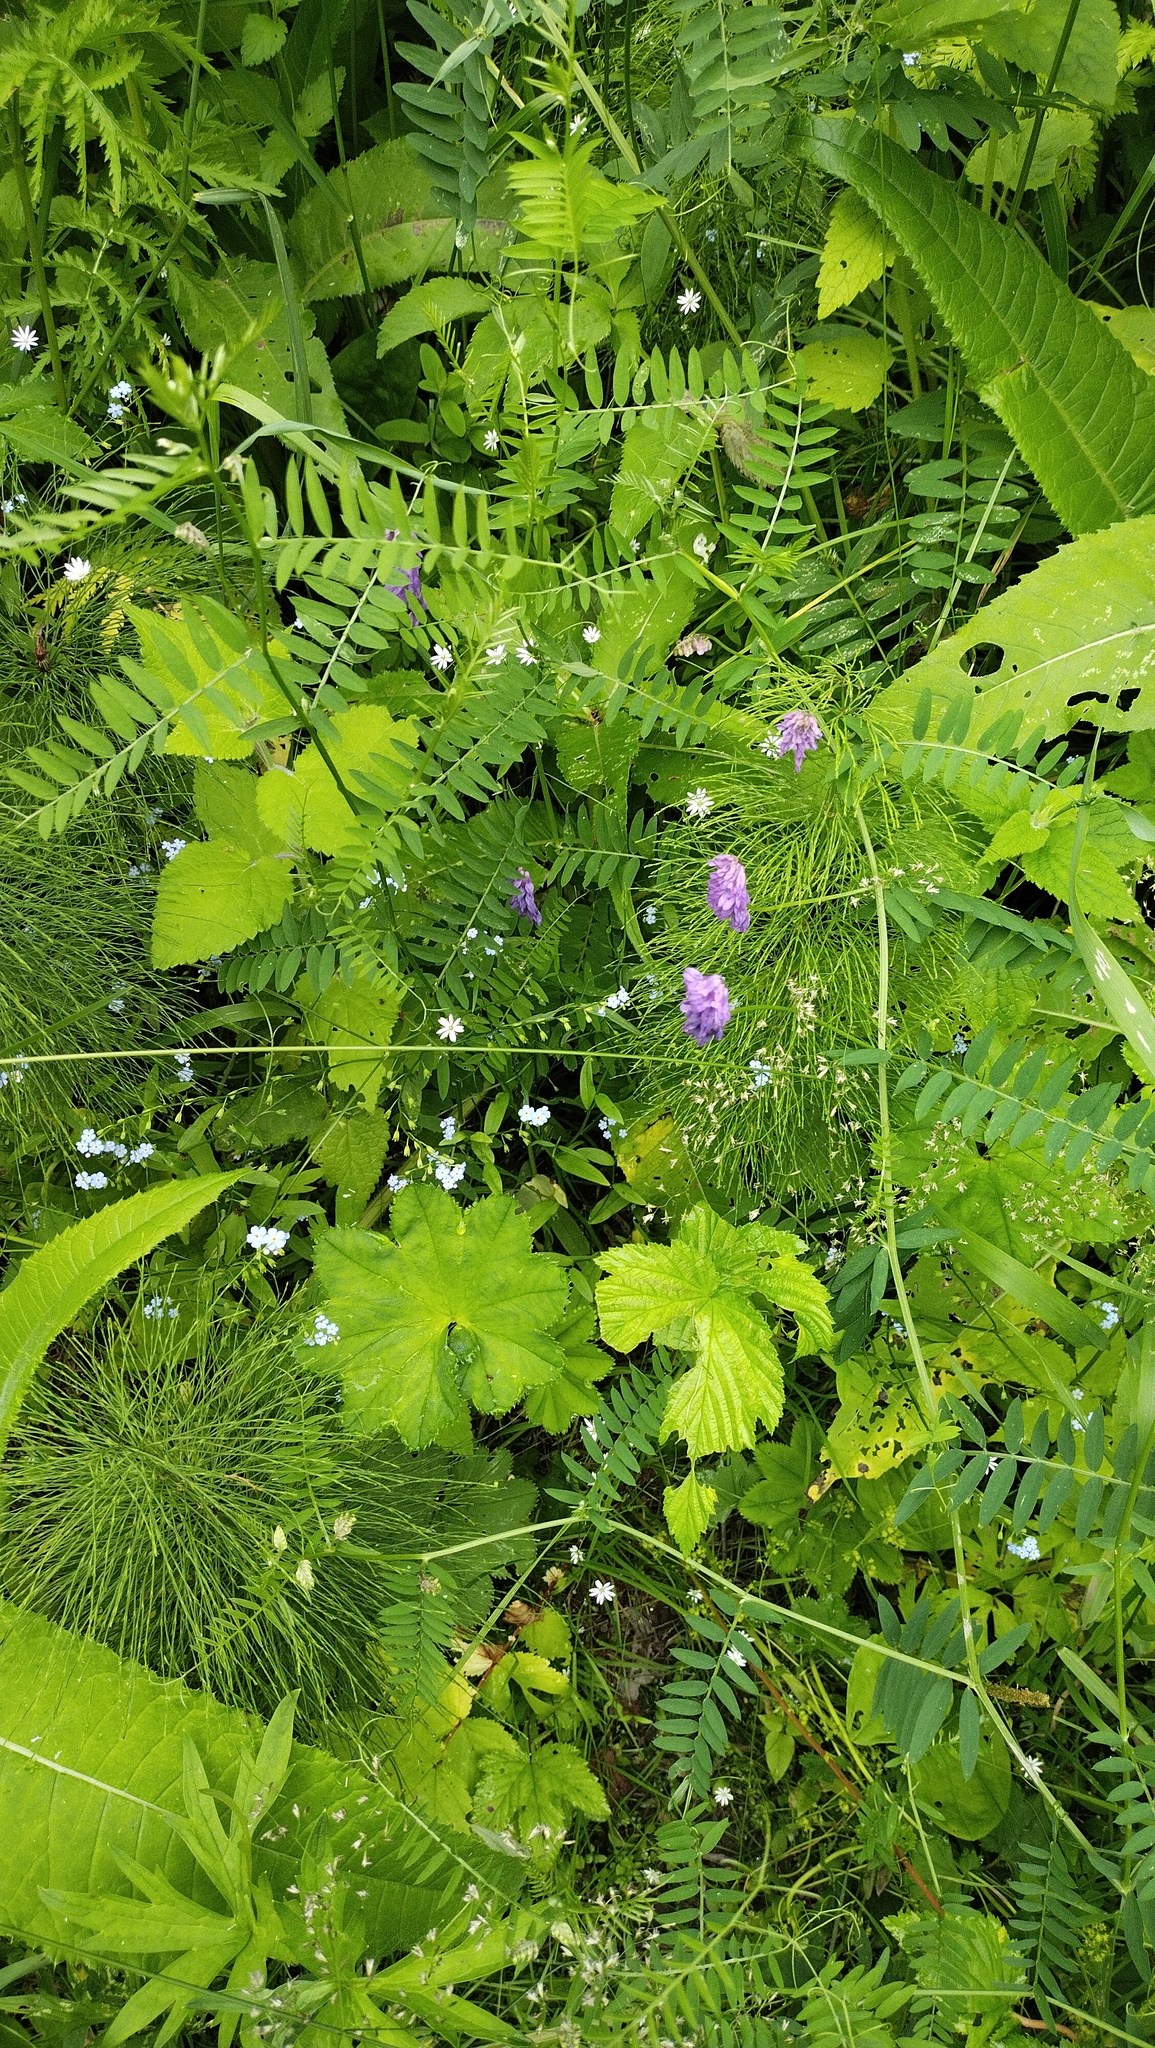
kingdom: Plantae
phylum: Tracheophyta
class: Magnoliopsida
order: Fabales
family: Fabaceae
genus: Vicia
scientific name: Vicia cracca
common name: Bird vetch
